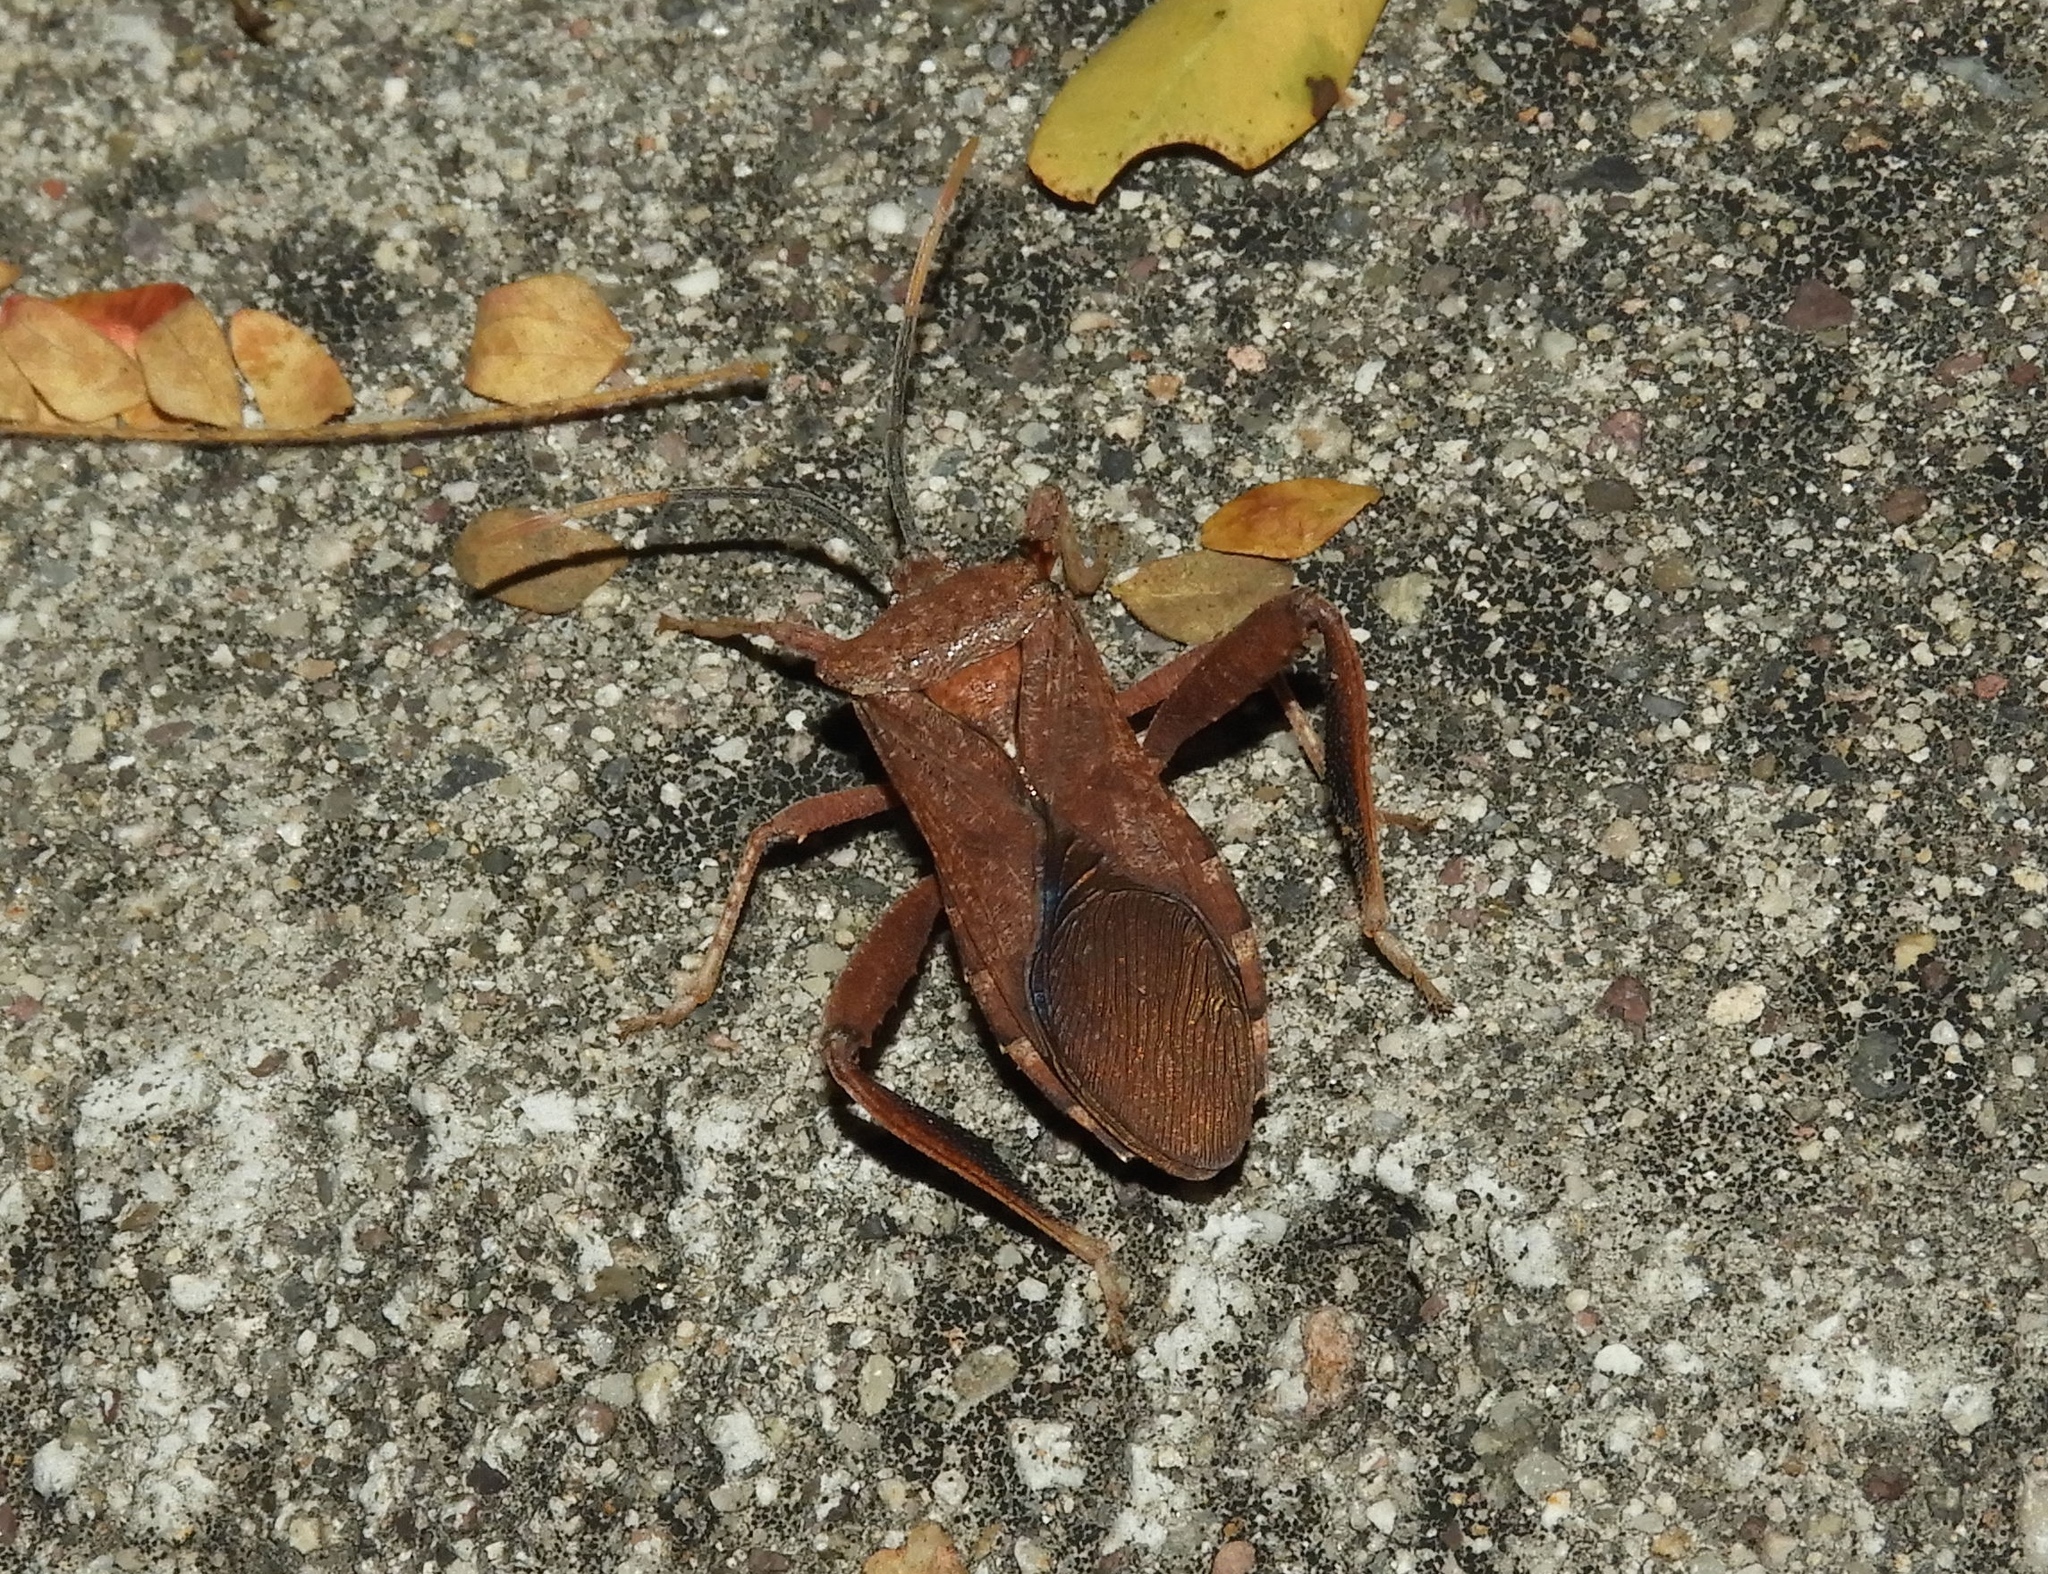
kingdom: Animalia
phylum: Arthropoda
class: Insecta
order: Hemiptera
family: Coreidae
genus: Mozena
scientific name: Mozena
